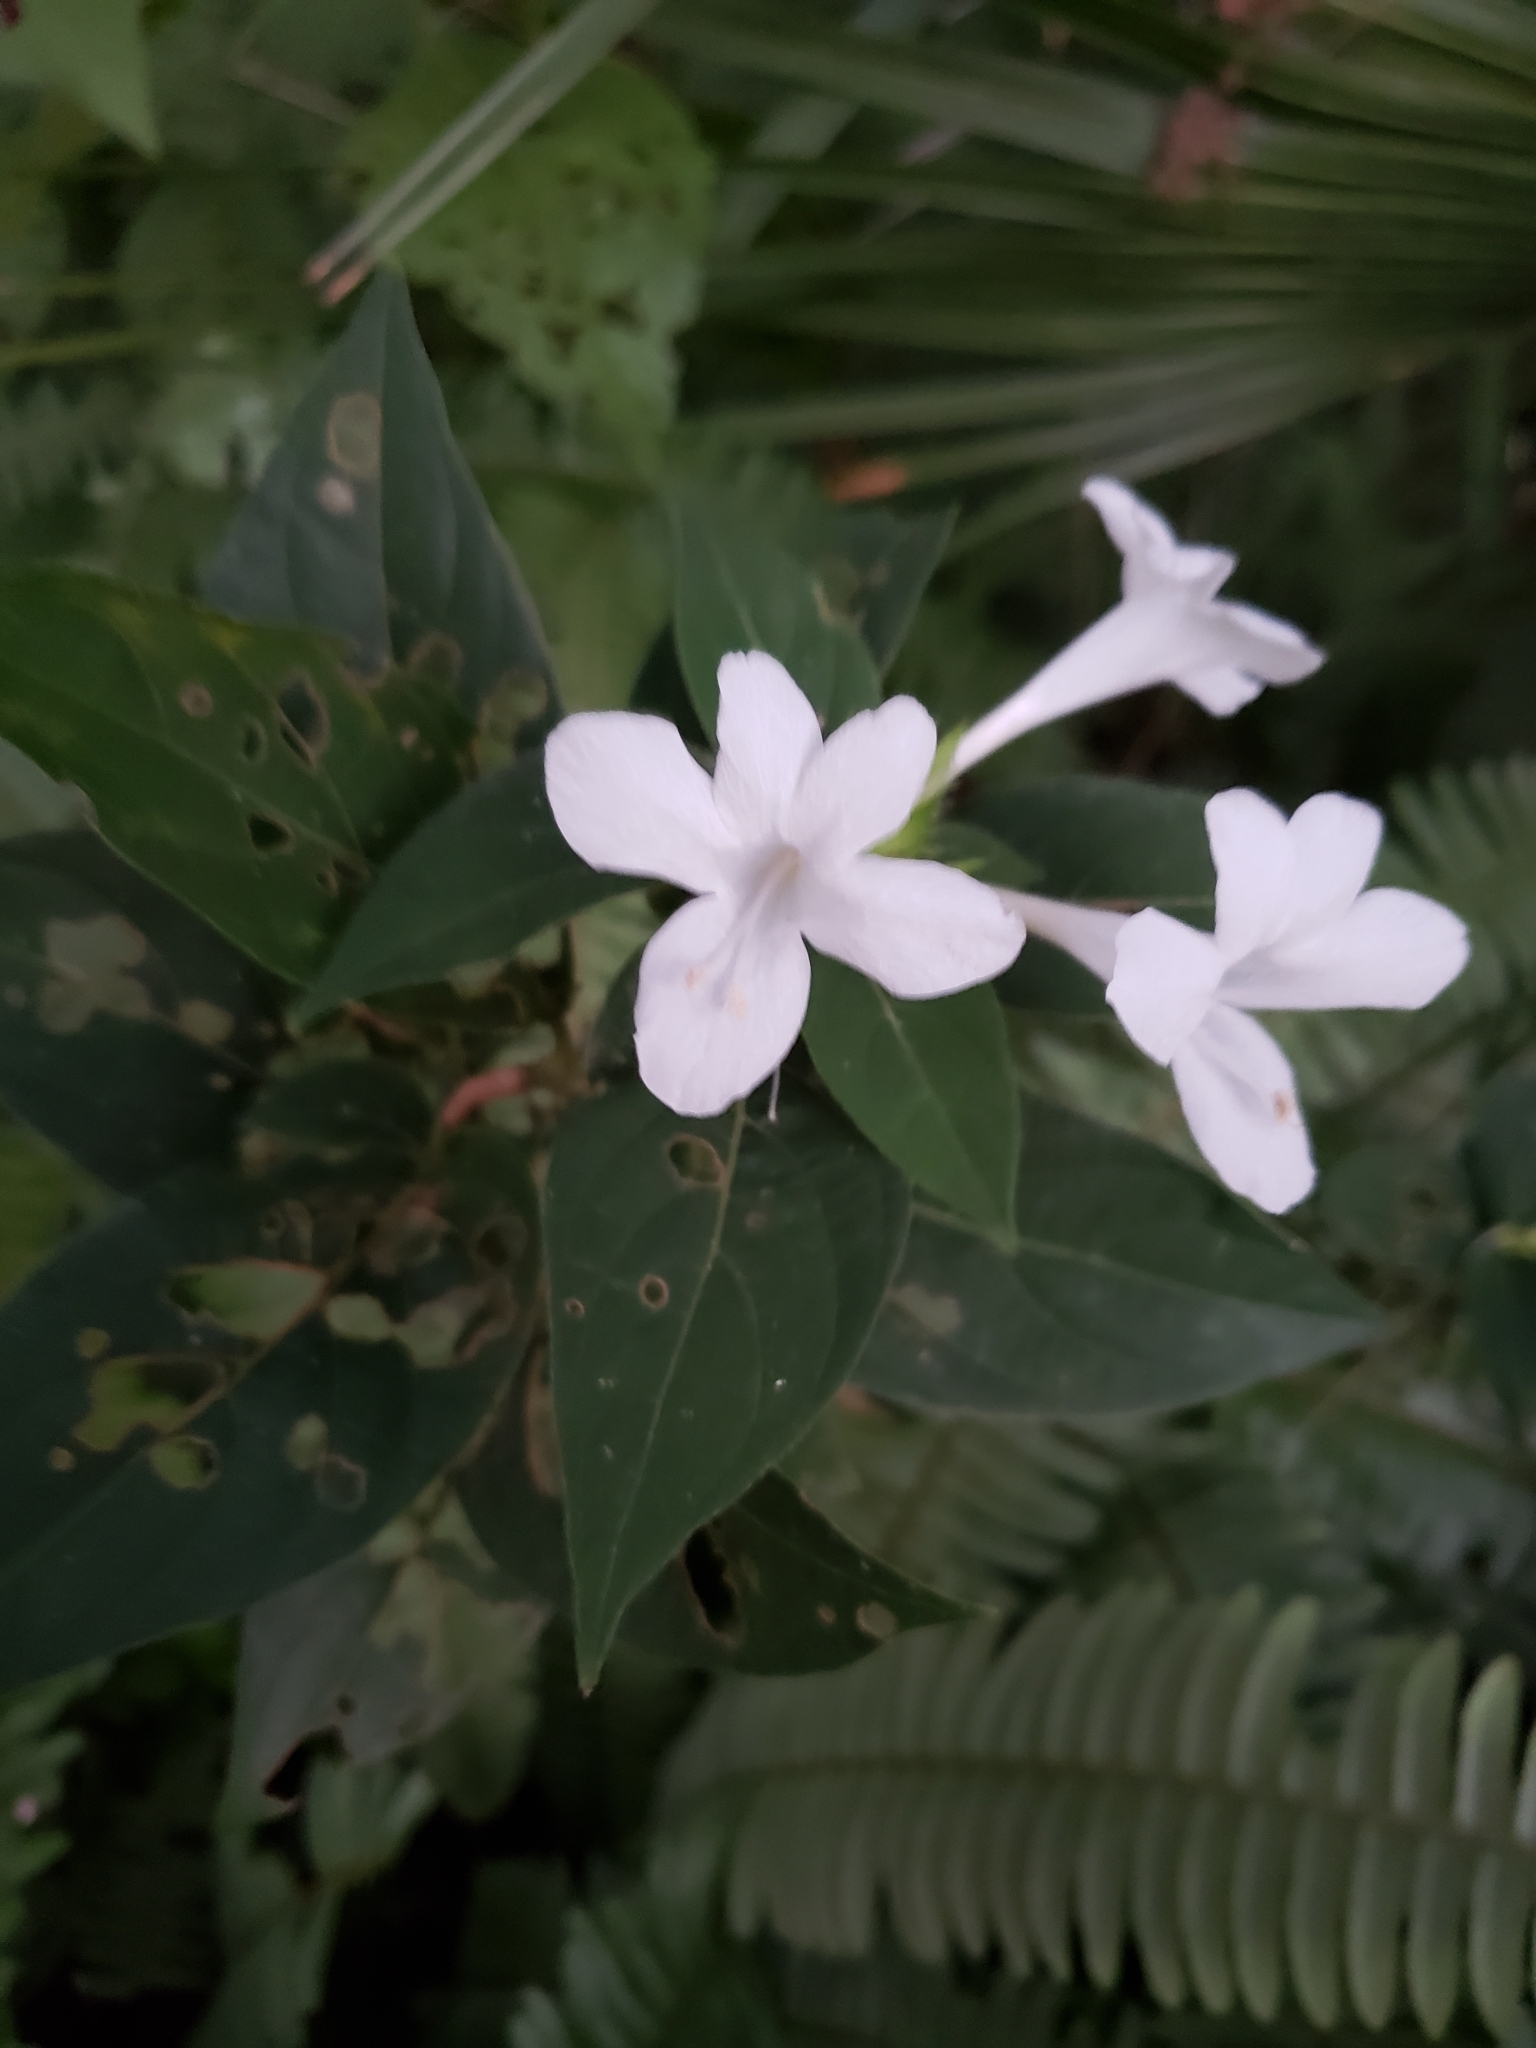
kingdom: Plantae
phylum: Tracheophyta
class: Magnoliopsida
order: Lamiales
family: Acanthaceae
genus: Barleria
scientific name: Barleria cristata
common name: Crested philippine violet
